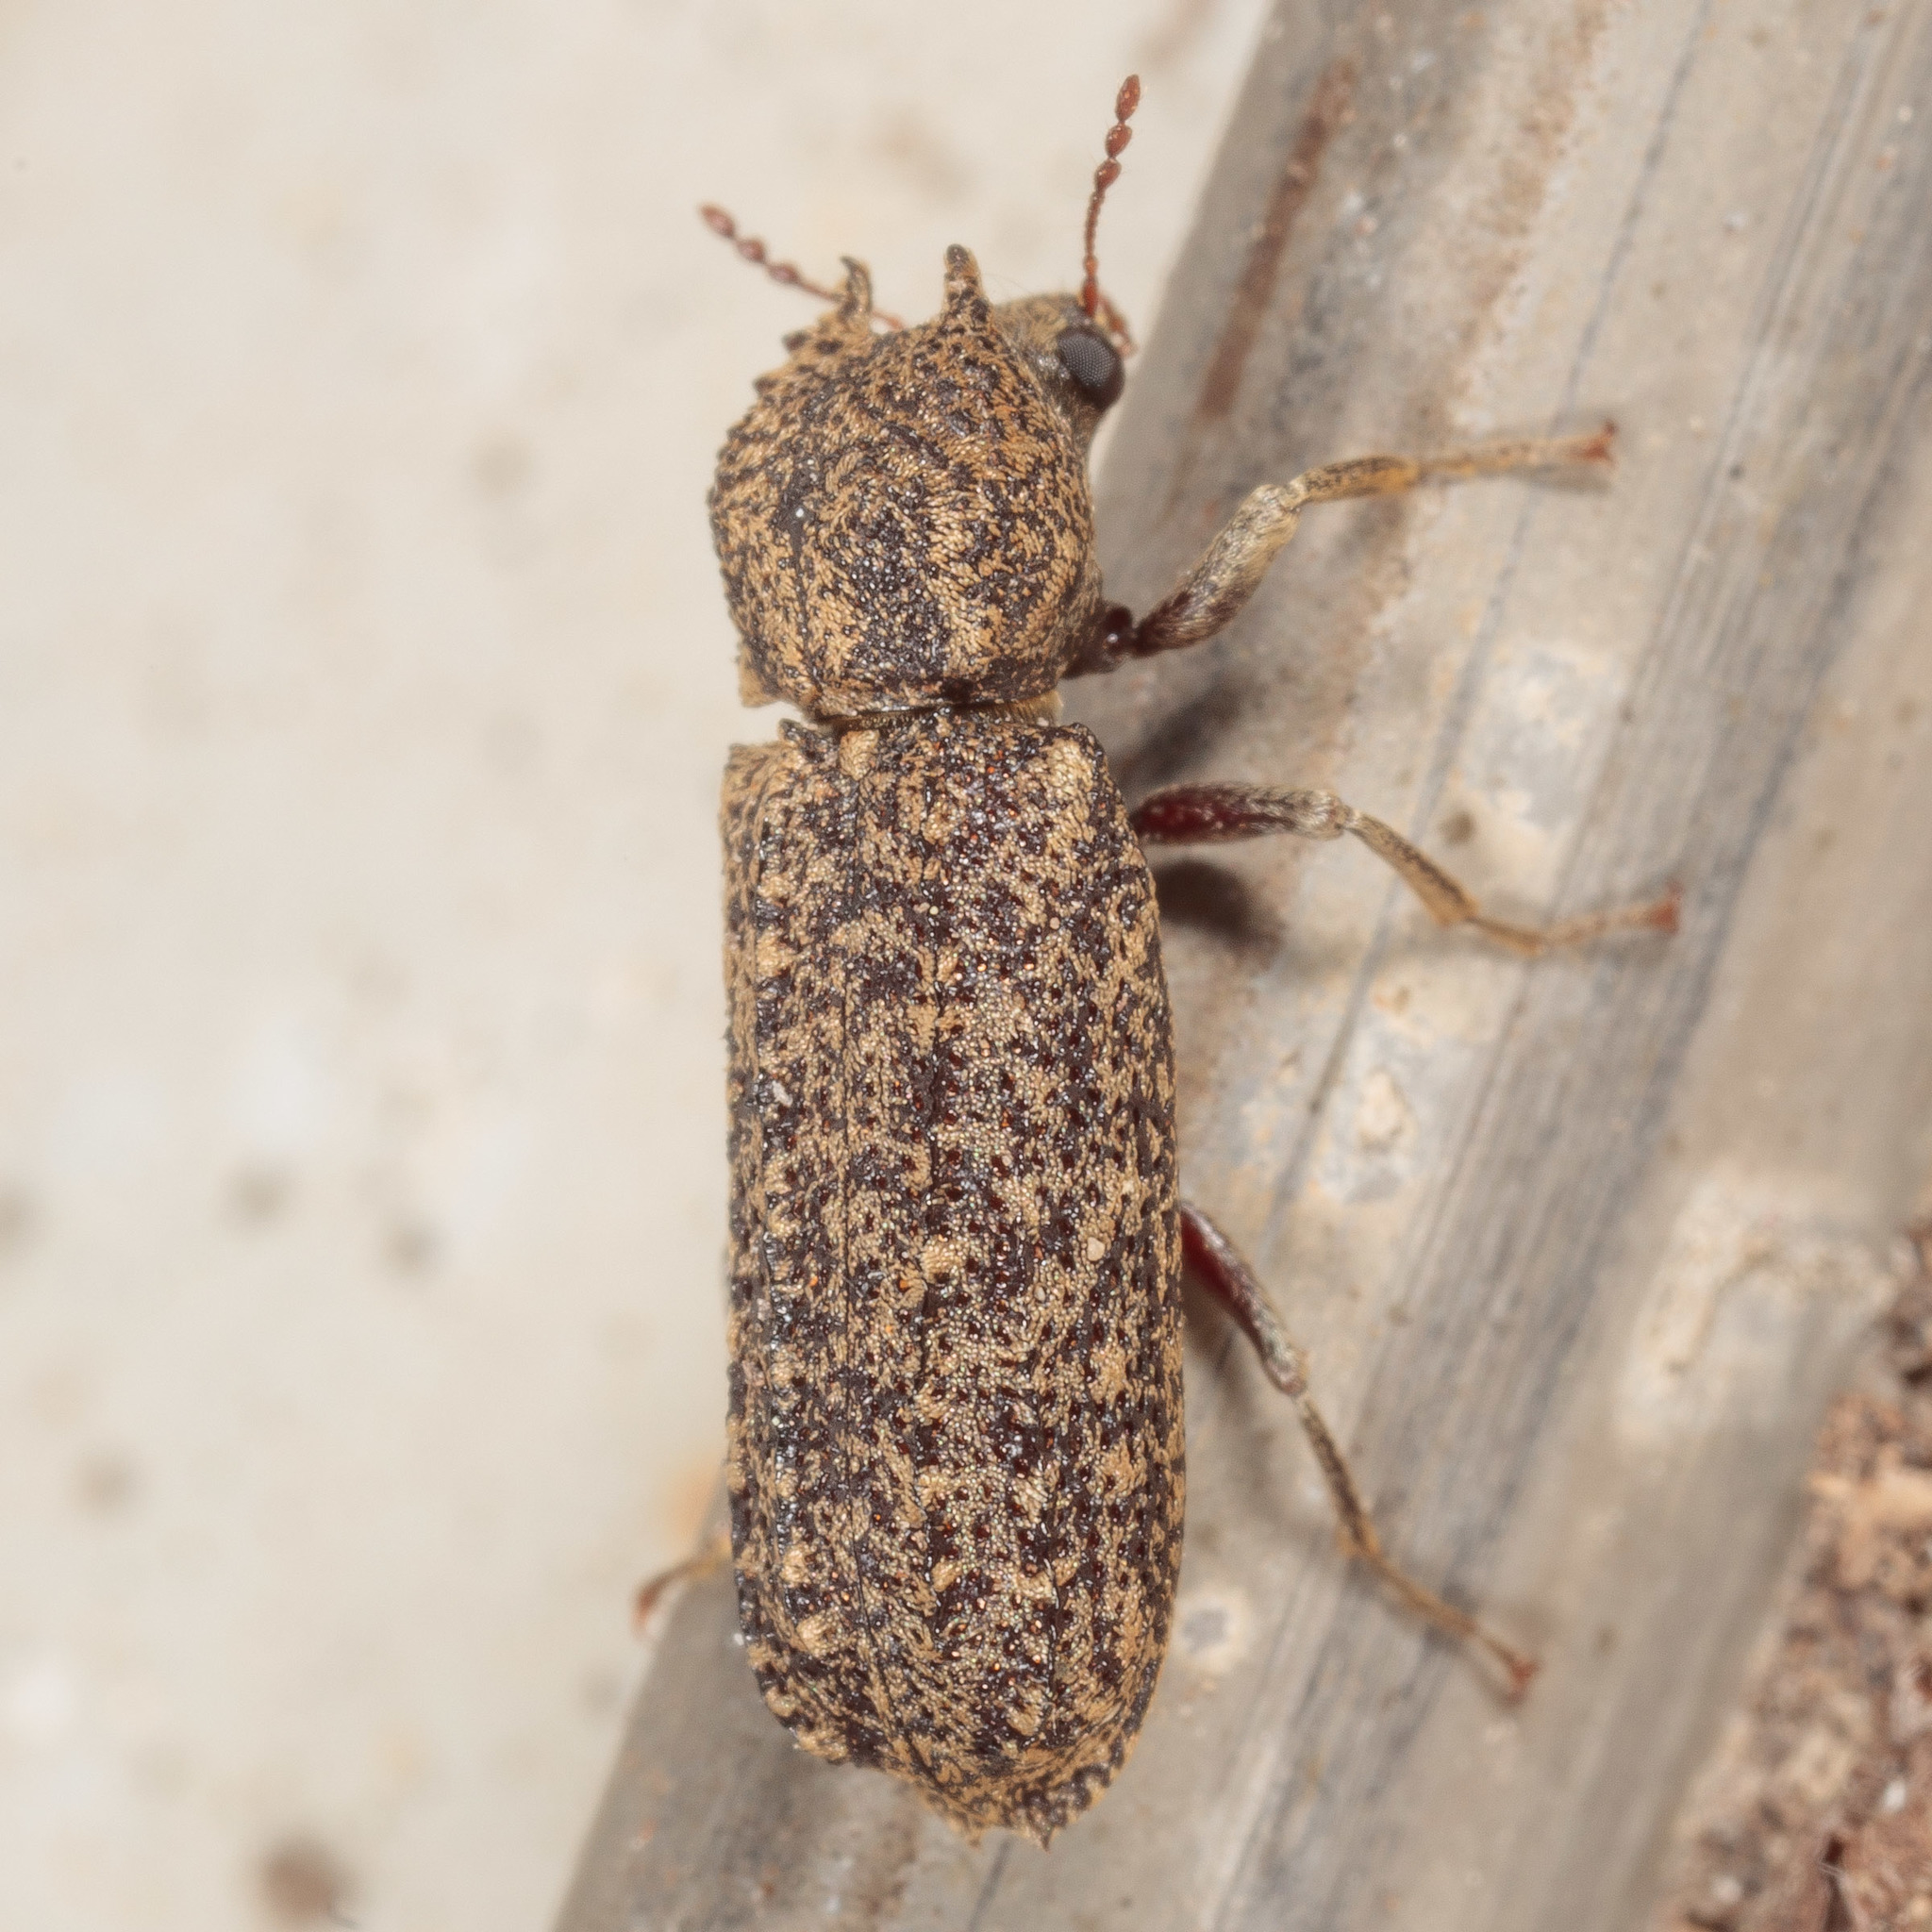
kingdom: Animalia
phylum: Arthropoda
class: Insecta
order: Coleoptera
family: Bostrichidae
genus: Lichenophanes
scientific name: Lichenophanes bicornis
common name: Two-horned powder-post beetle
